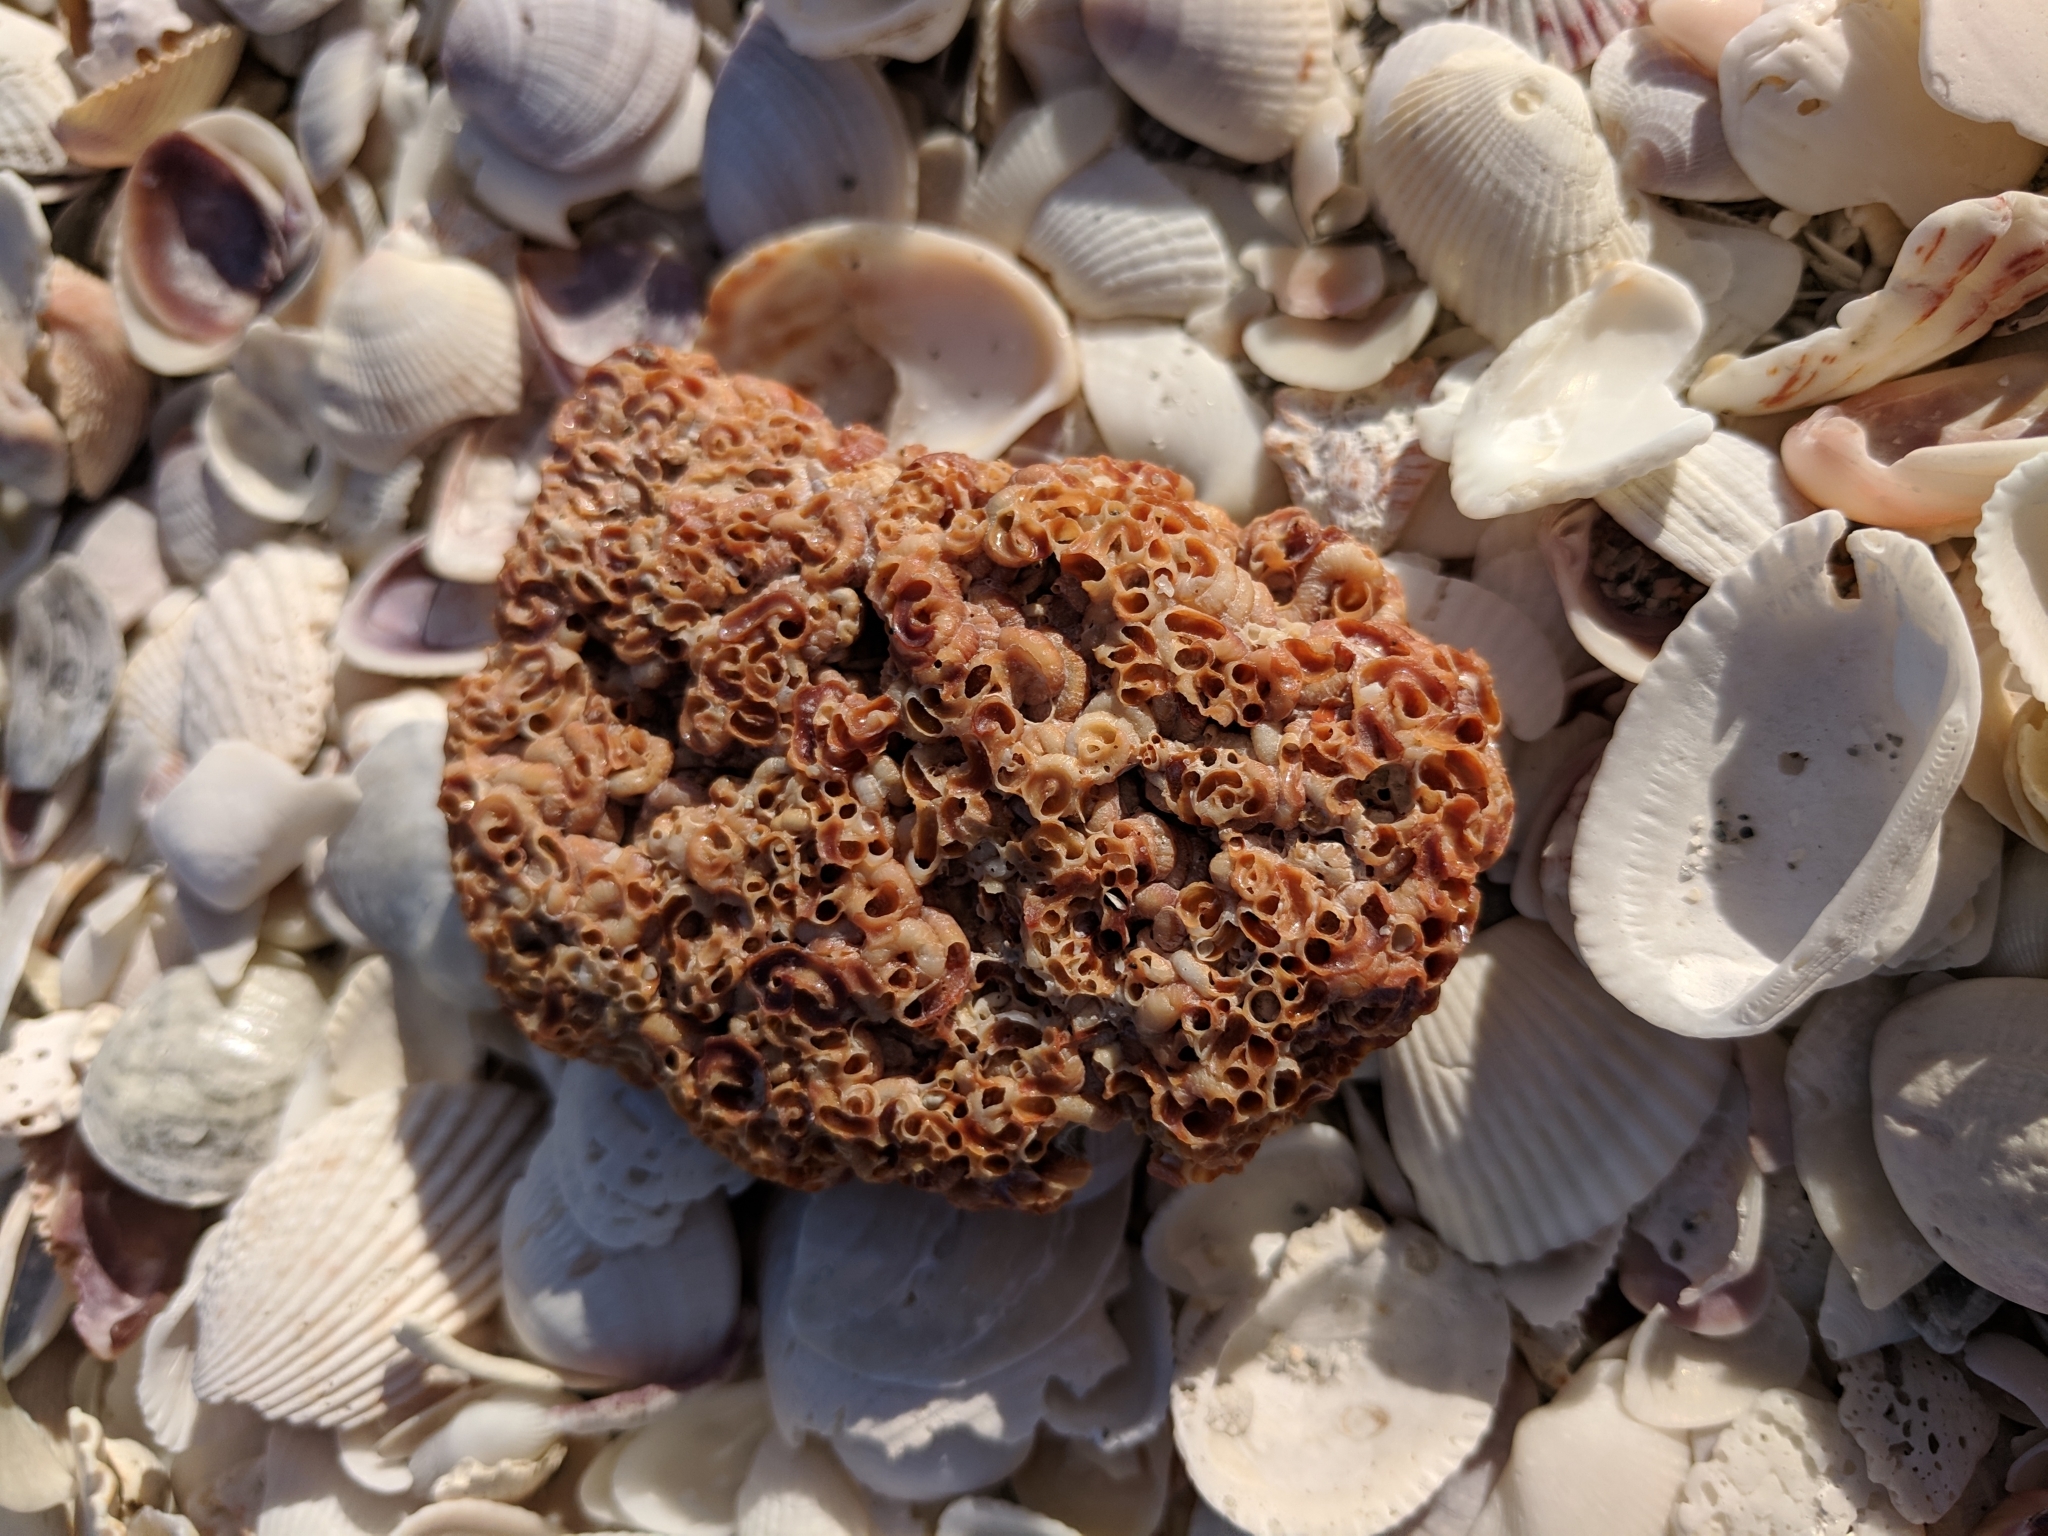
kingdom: Animalia
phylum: Mollusca
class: Gastropoda
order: Littorinimorpha
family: Vermetidae
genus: Petaloconchus
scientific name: Petaloconchus varians
